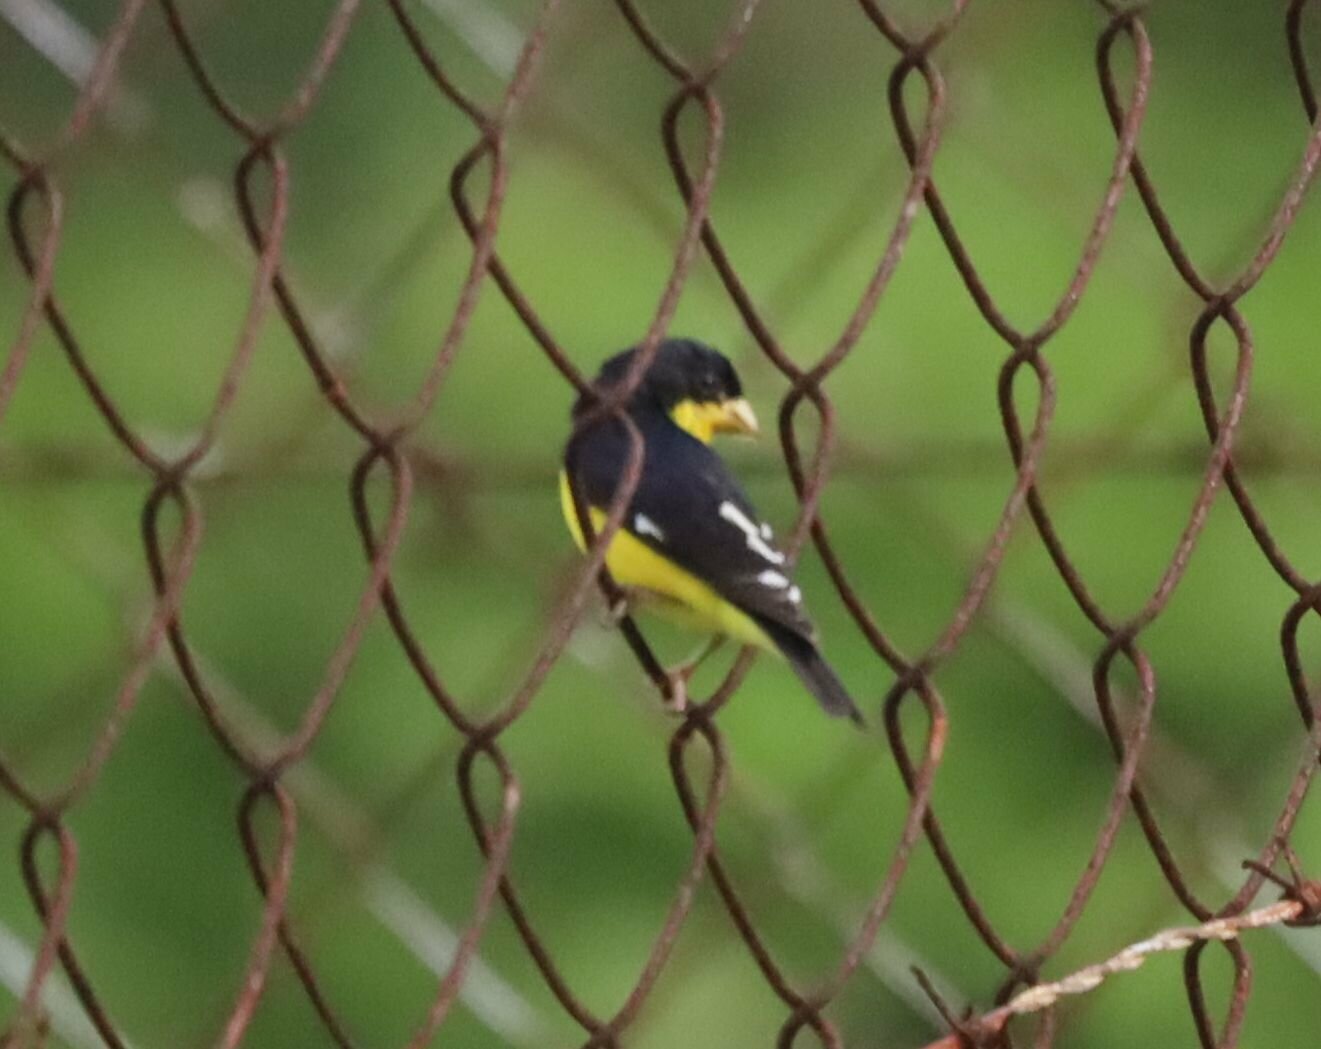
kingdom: Animalia
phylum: Chordata
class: Aves
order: Passeriformes
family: Fringillidae
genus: Spinus
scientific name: Spinus psaltria
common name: Lesser goldfinch
